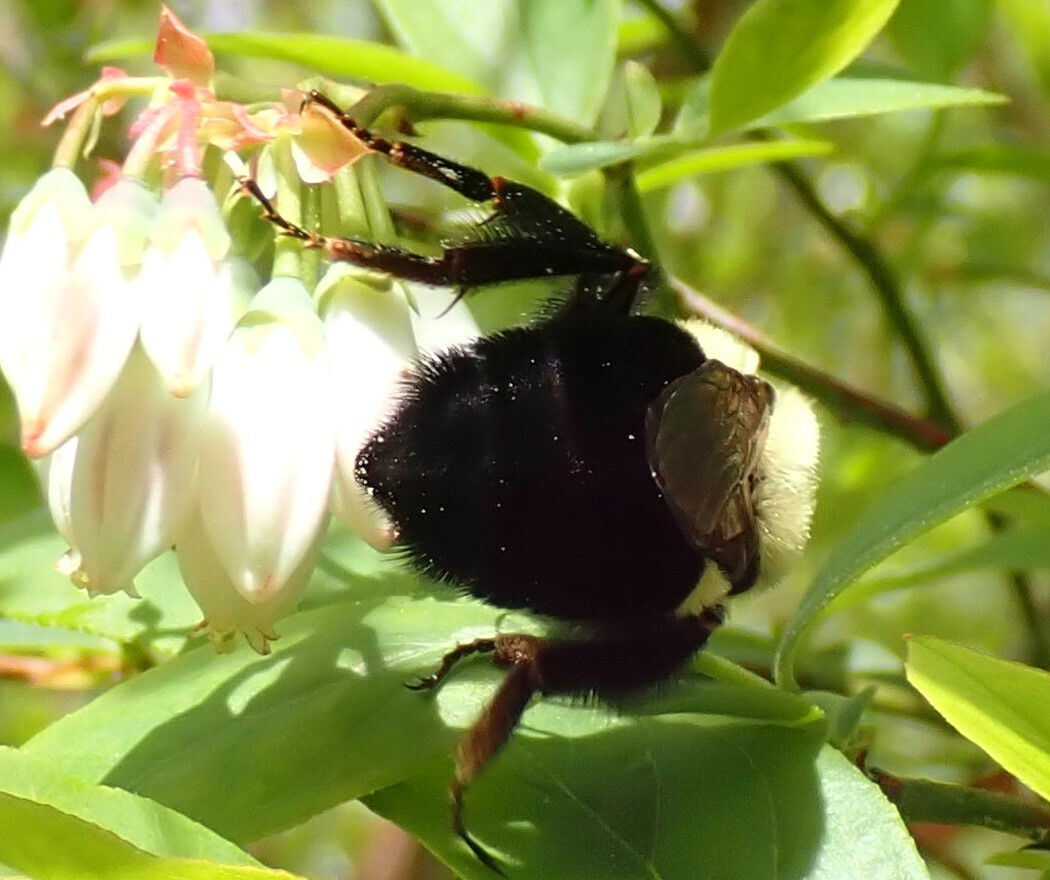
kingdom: Animalia
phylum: Arthropoda
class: Insecta
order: Hymenoptera
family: Apidae
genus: Bombus
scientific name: Bombus impatiens
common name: Common eastern bumble bee
